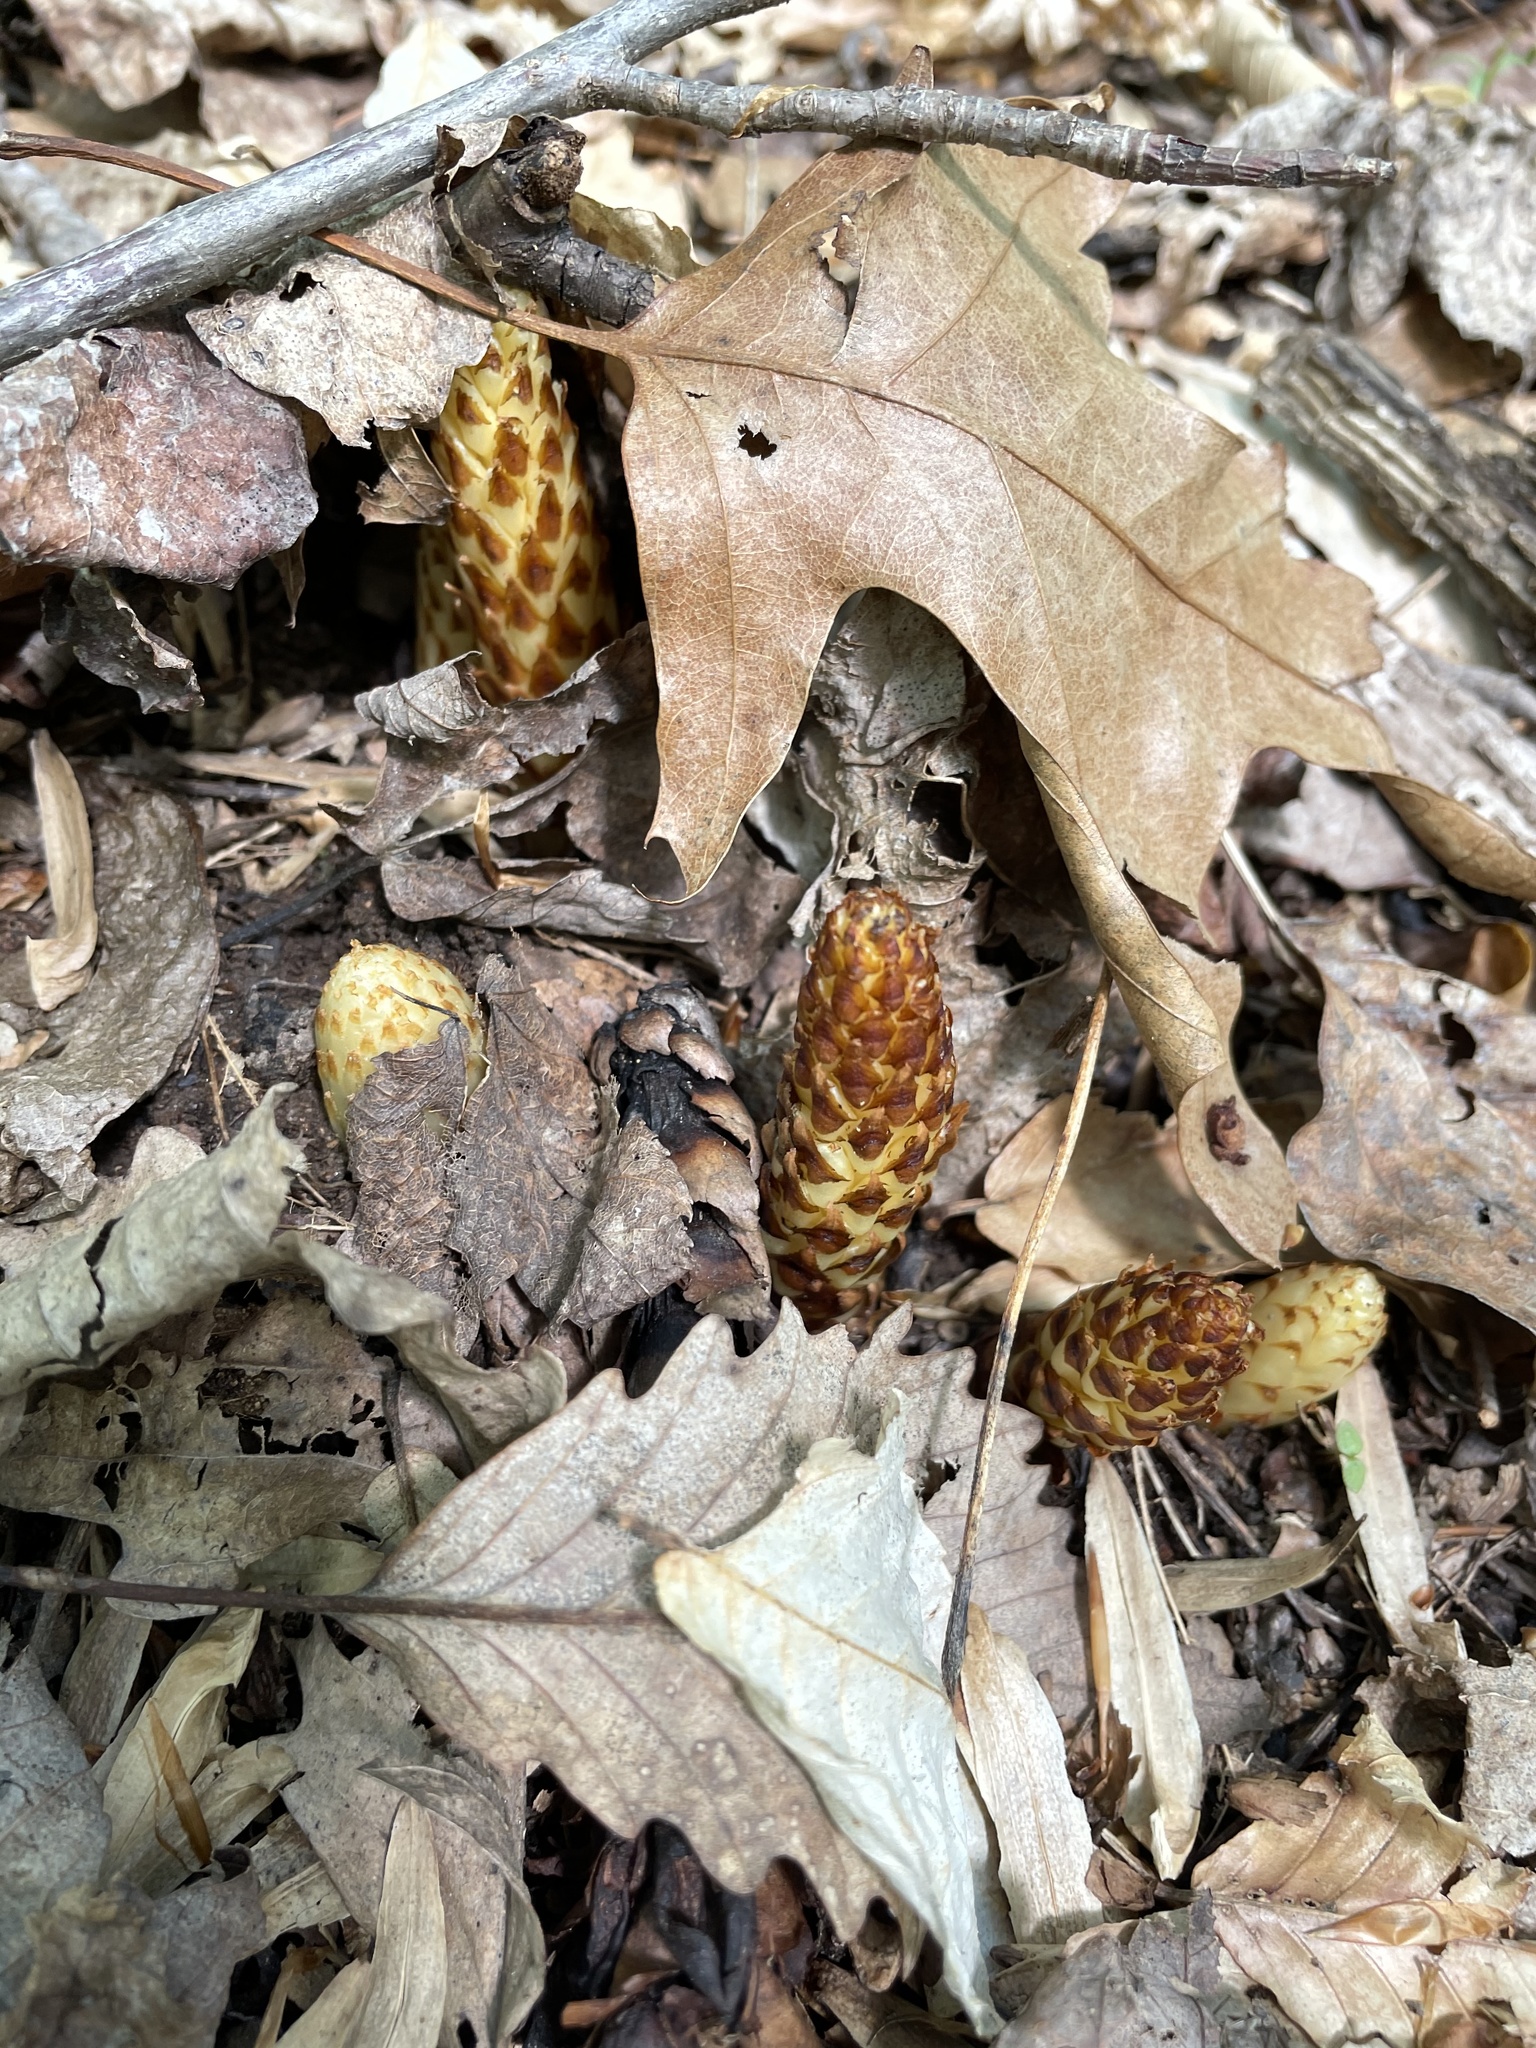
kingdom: Plantae
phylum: Tracheophyta
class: Magnoliopsida
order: Lamiales
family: Orobanchaceae
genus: Conopholis
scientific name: Conopholis americana
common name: American cancer-root
